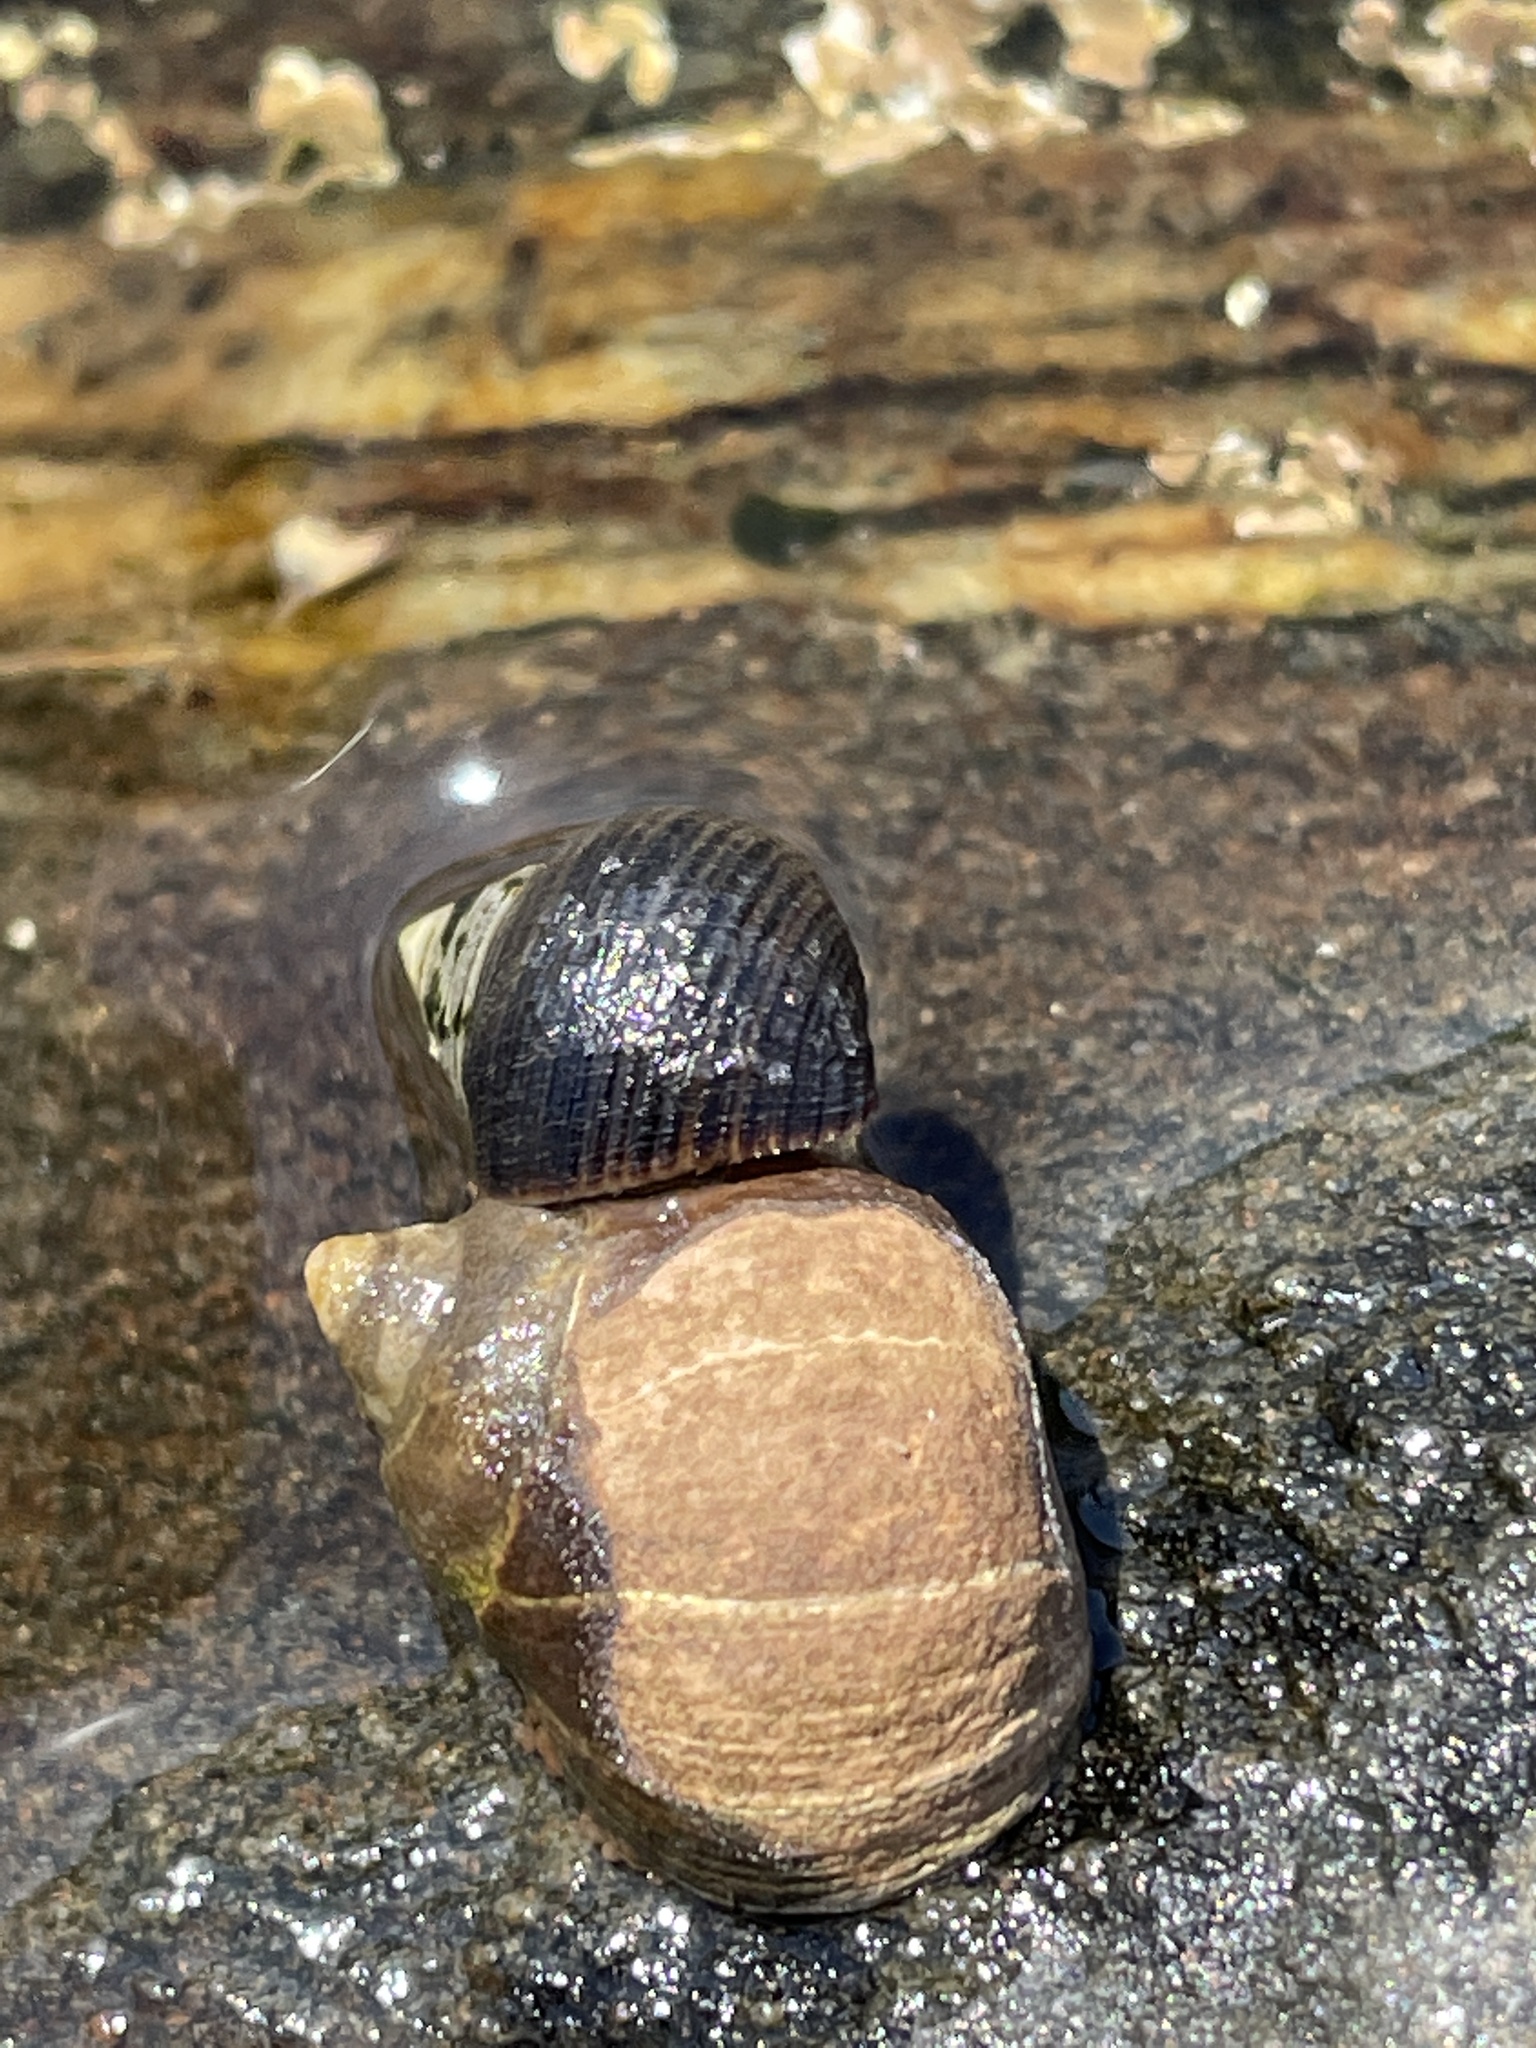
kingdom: Animalia
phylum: Mollusca
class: Gastropoda
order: Littorinimorpha
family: Littorinidae
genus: Littorina
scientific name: Littorina littorea
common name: Common periwinkle
